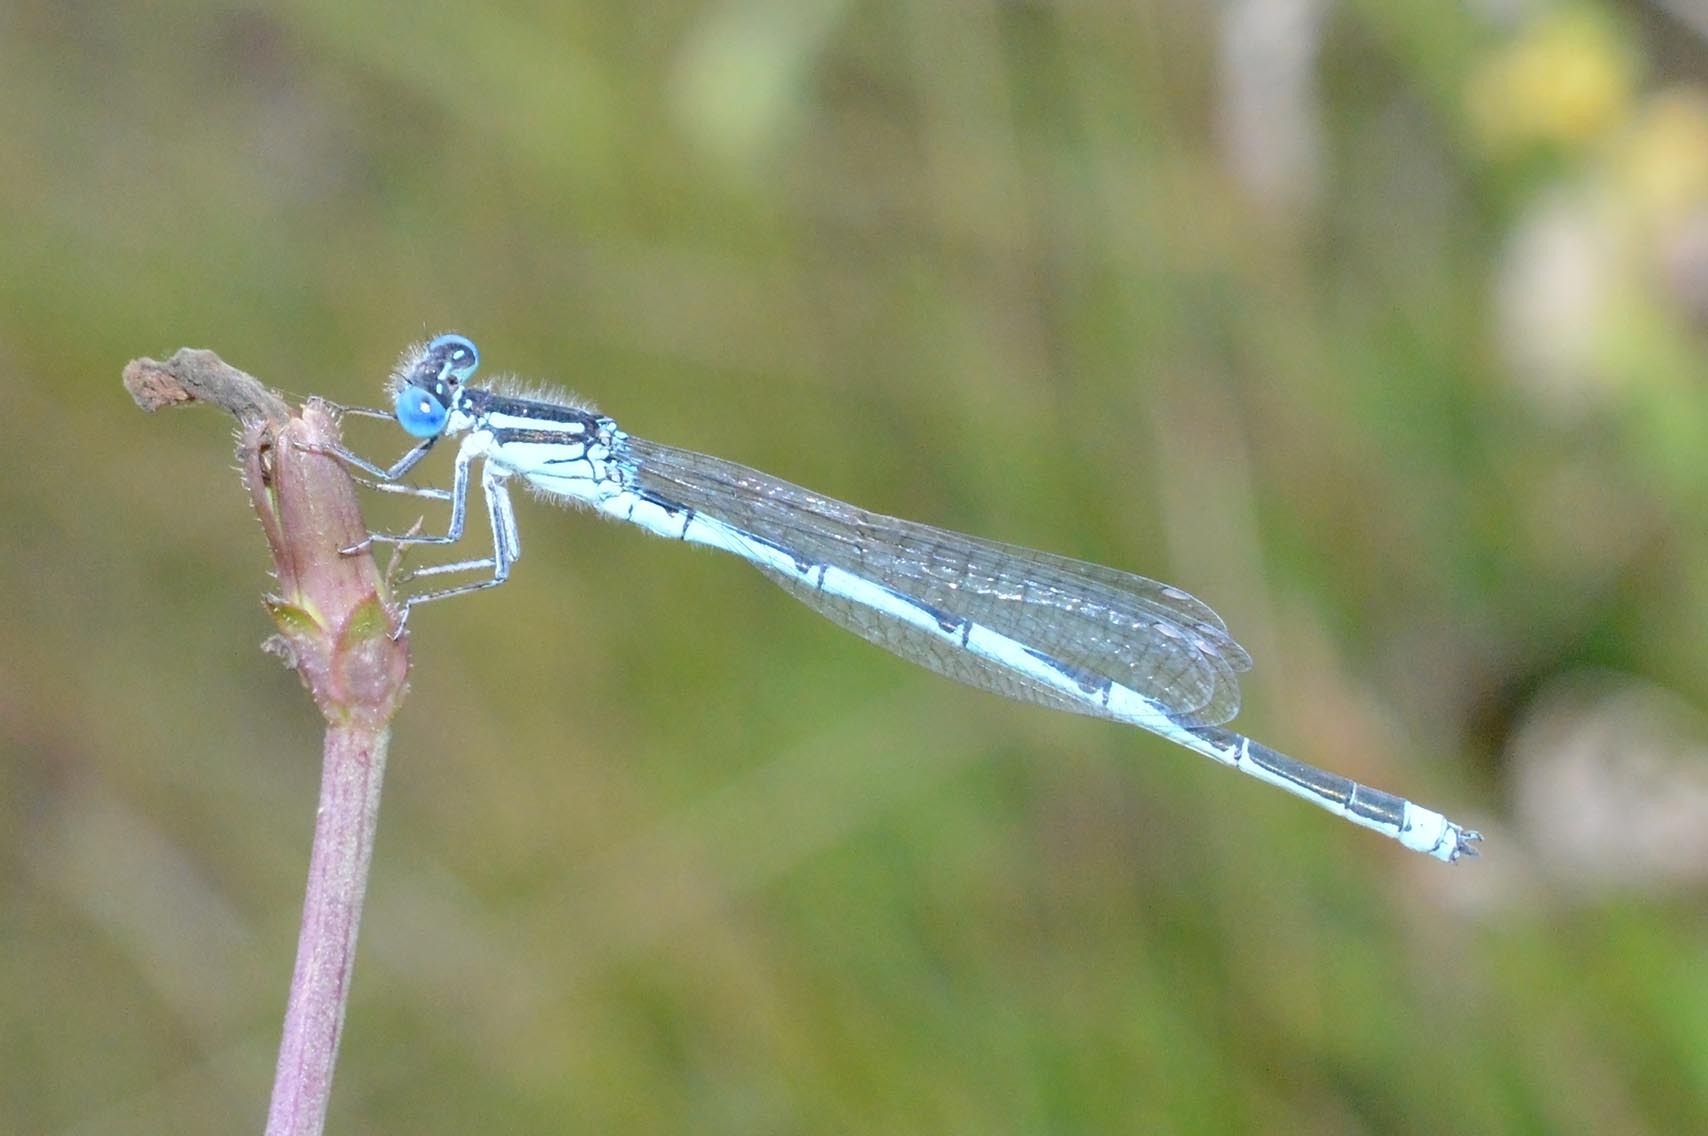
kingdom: Animalia
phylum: Arthropoda
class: Insecta
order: Odonata
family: Coenagrionidae
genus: Erythromma
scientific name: Erythromma lindenii
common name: Blue-eye
